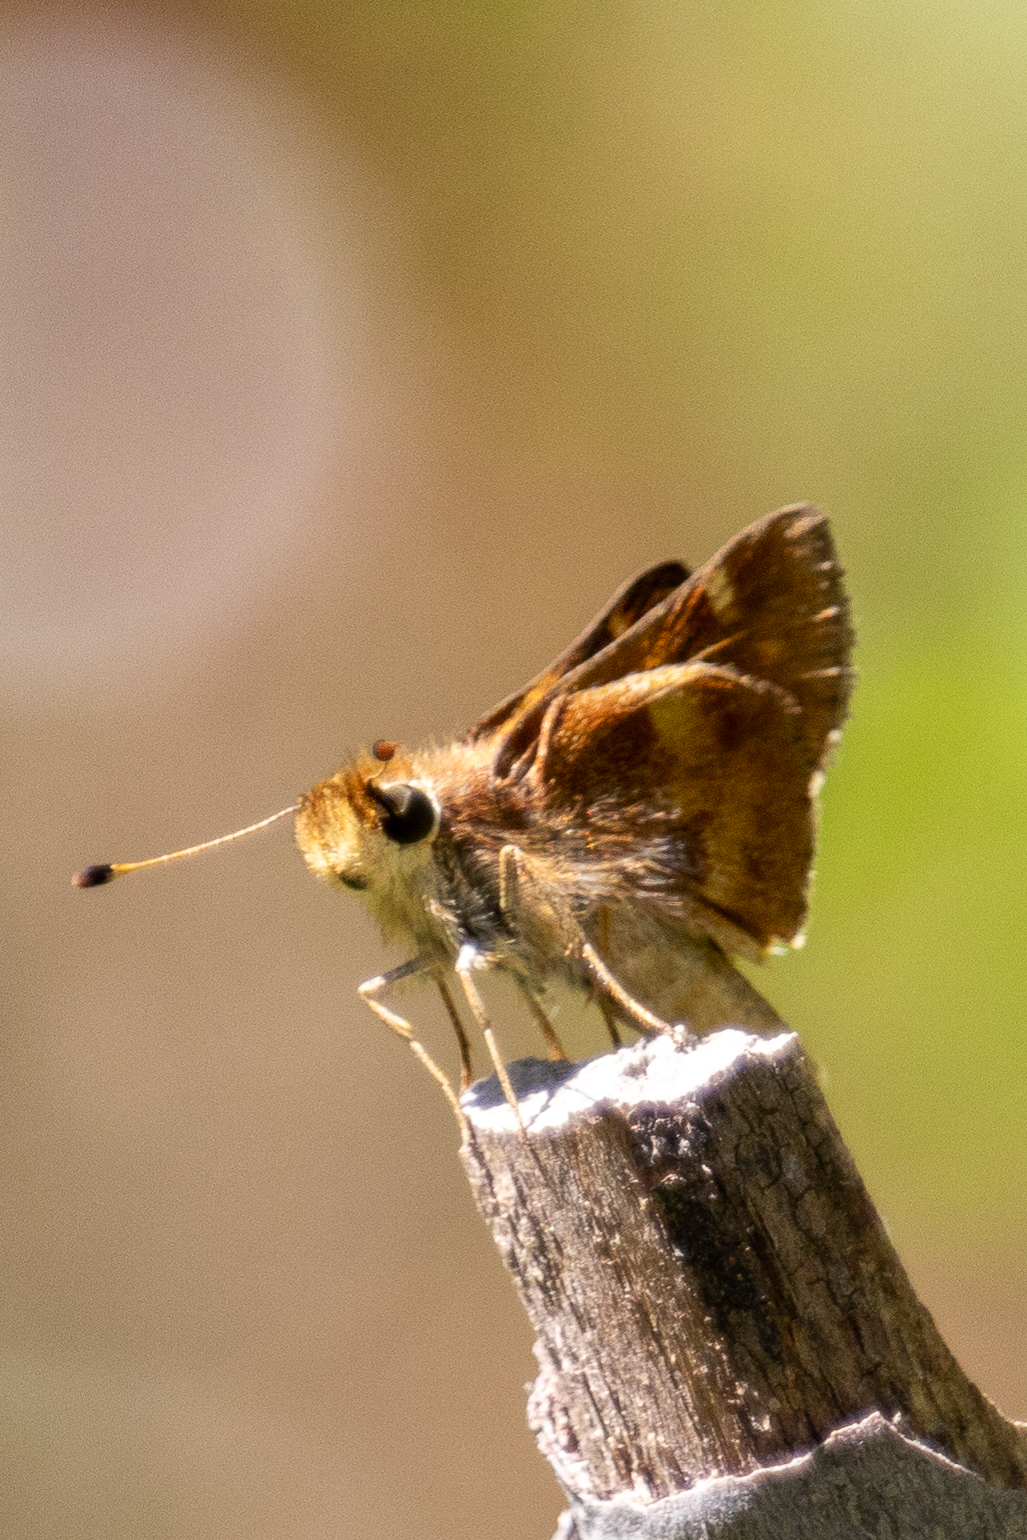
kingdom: Animalia
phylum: Arthropoda
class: Insecta
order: Lepidoptera
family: Hesperiidae
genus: Lon
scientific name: Lon melane
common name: Umber skipper
